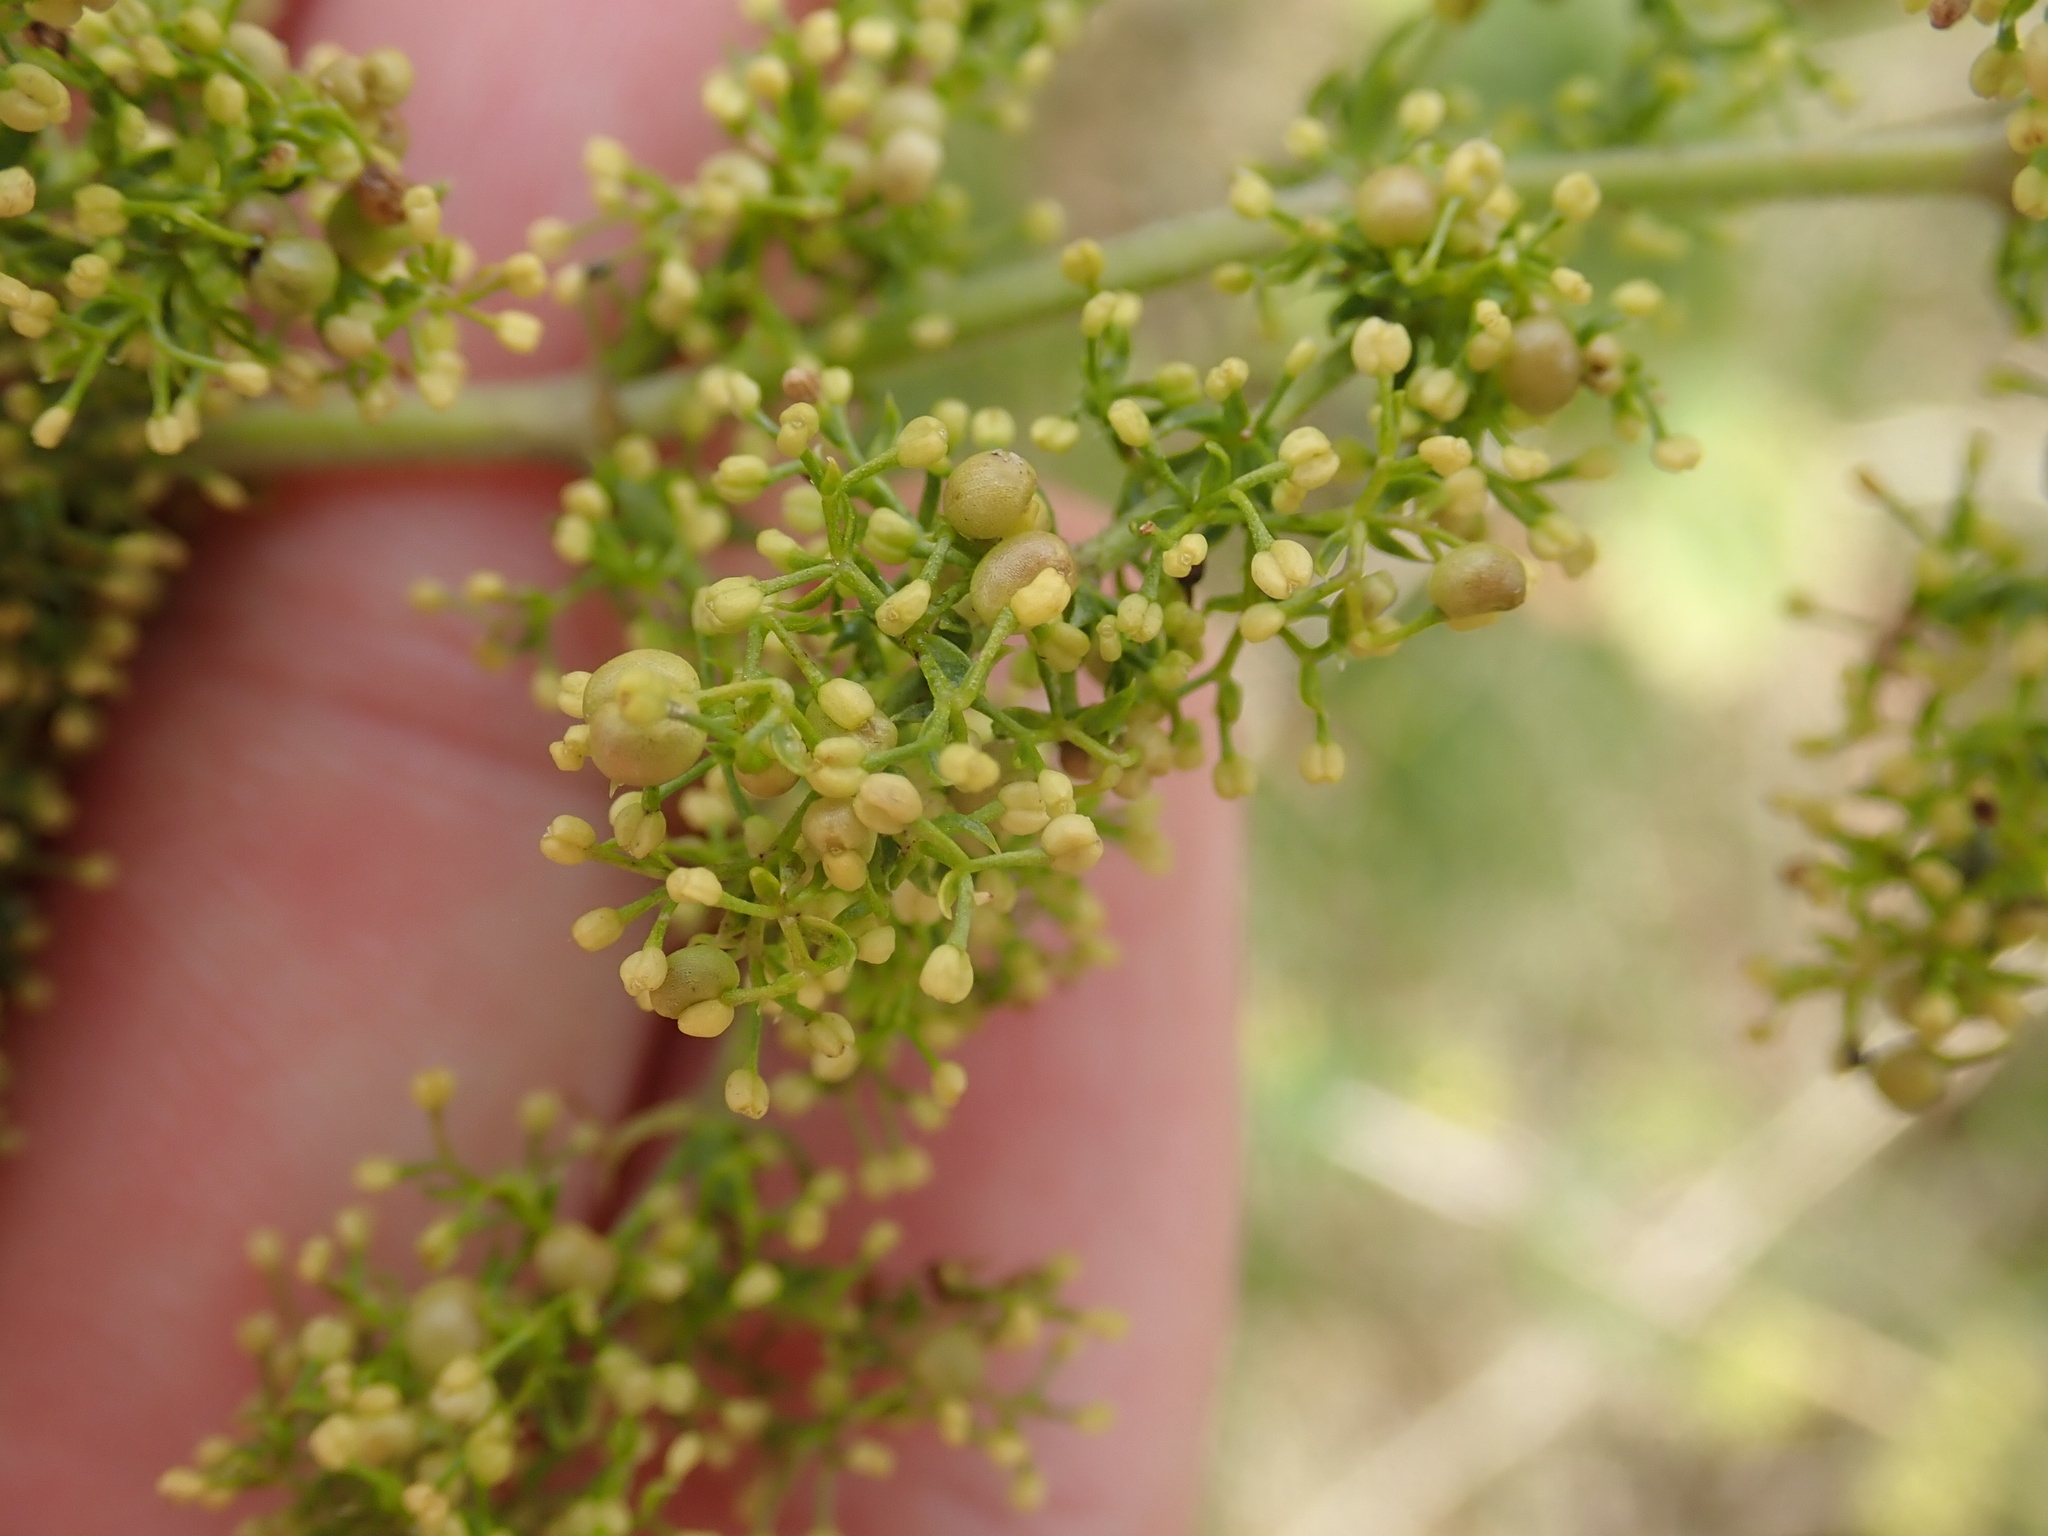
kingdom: Plantae
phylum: Tracheophyta
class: Magnoliopsida
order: Gentianales
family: Rubiaceae
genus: Galium
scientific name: Galium verum
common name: Lady's bedstraw
